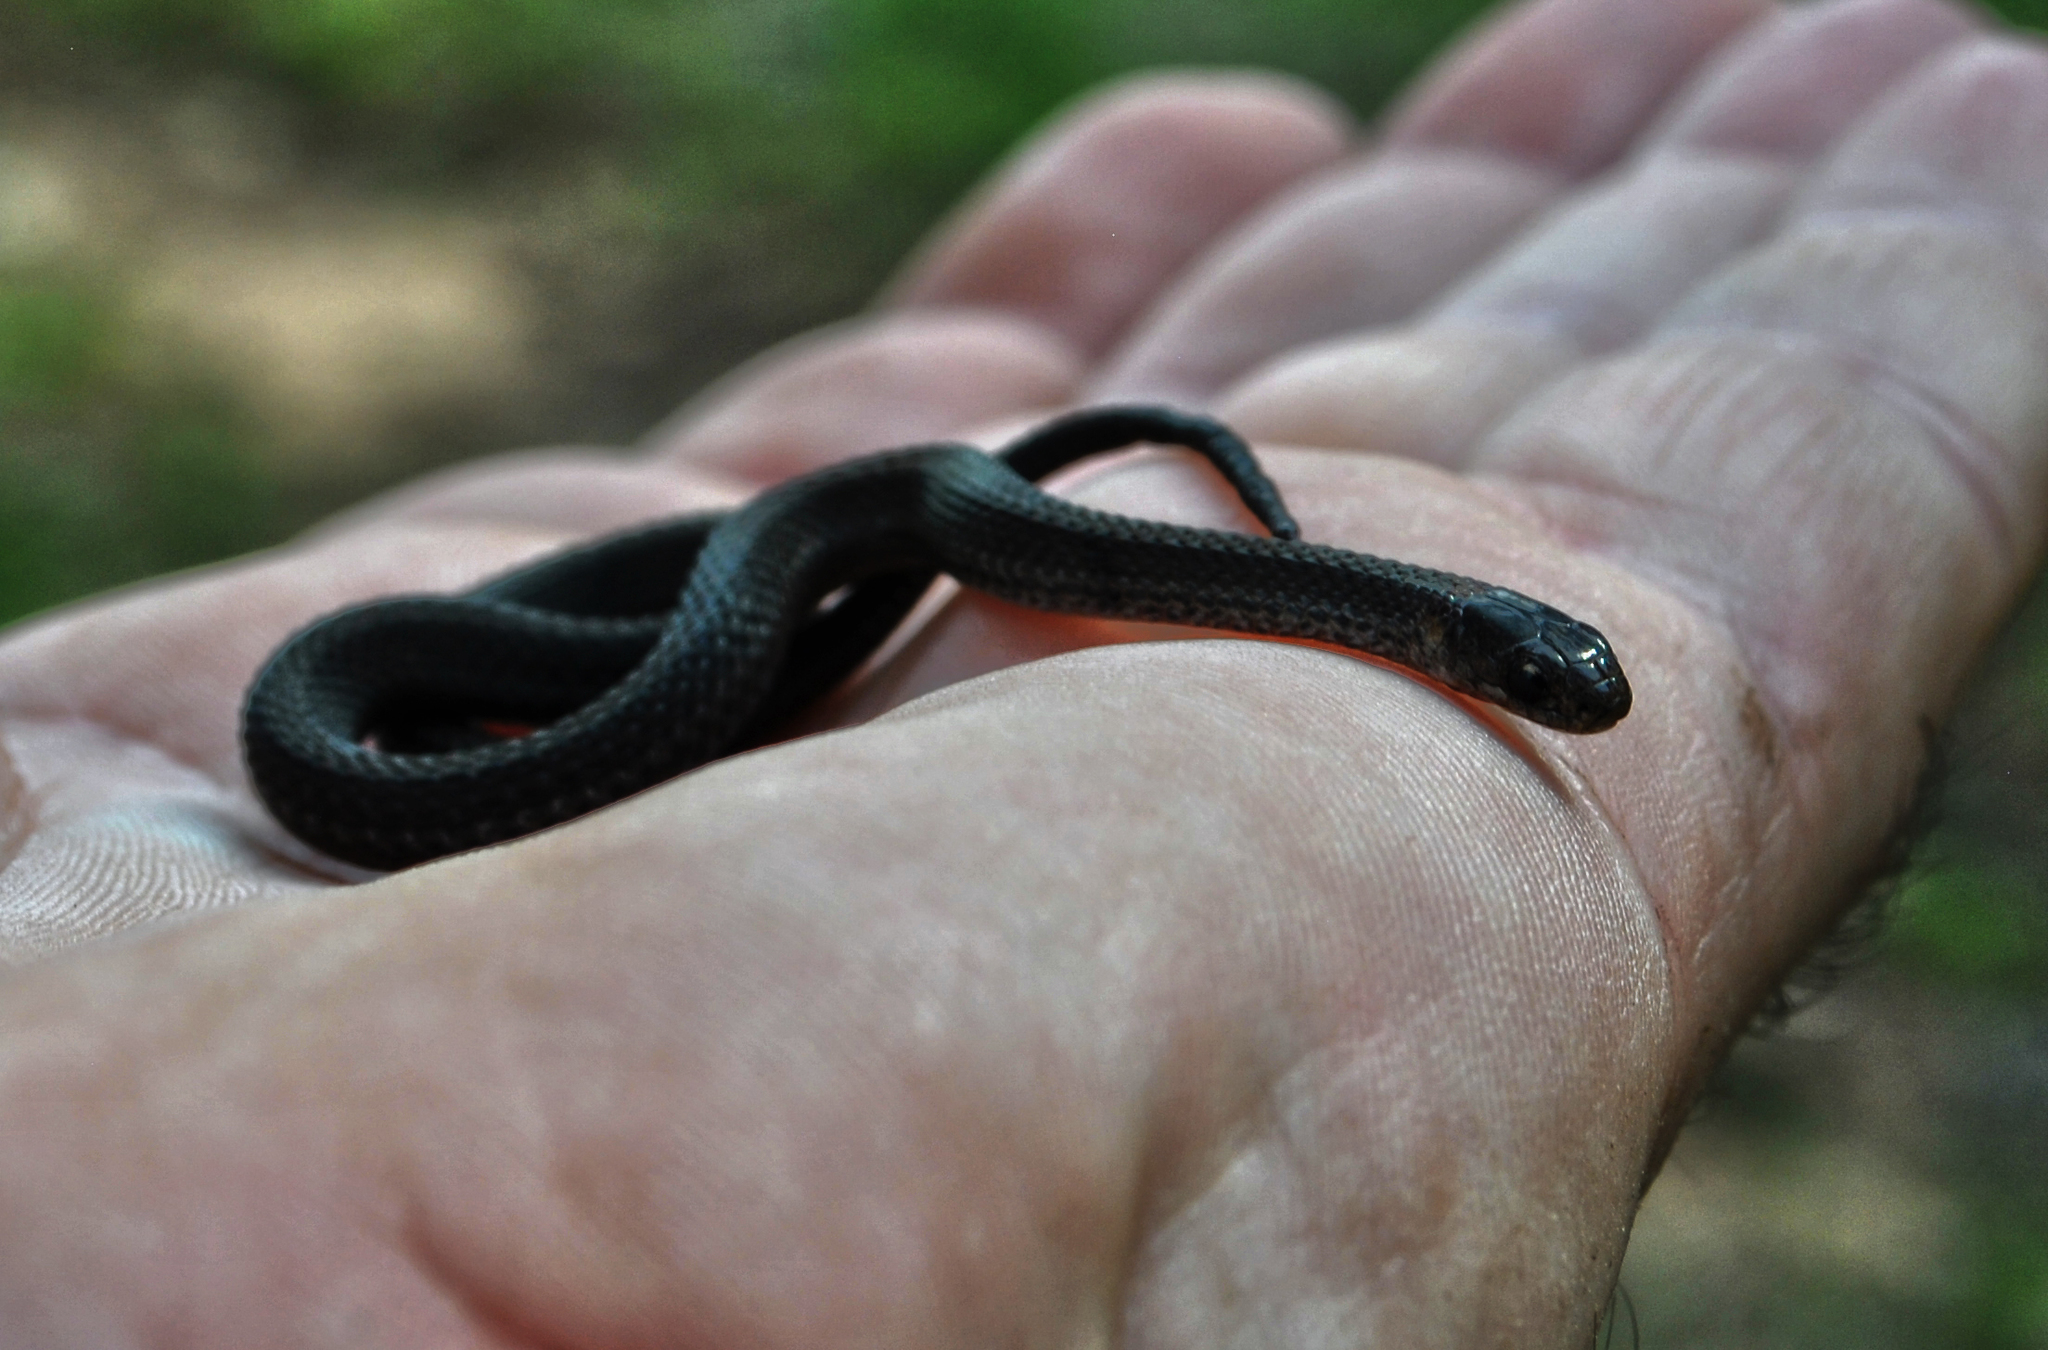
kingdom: Animalia
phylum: Chordata
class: Squamata
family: Colubridae
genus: Storeria
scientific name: Storeria occipitomaculata
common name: Redbelly snake
